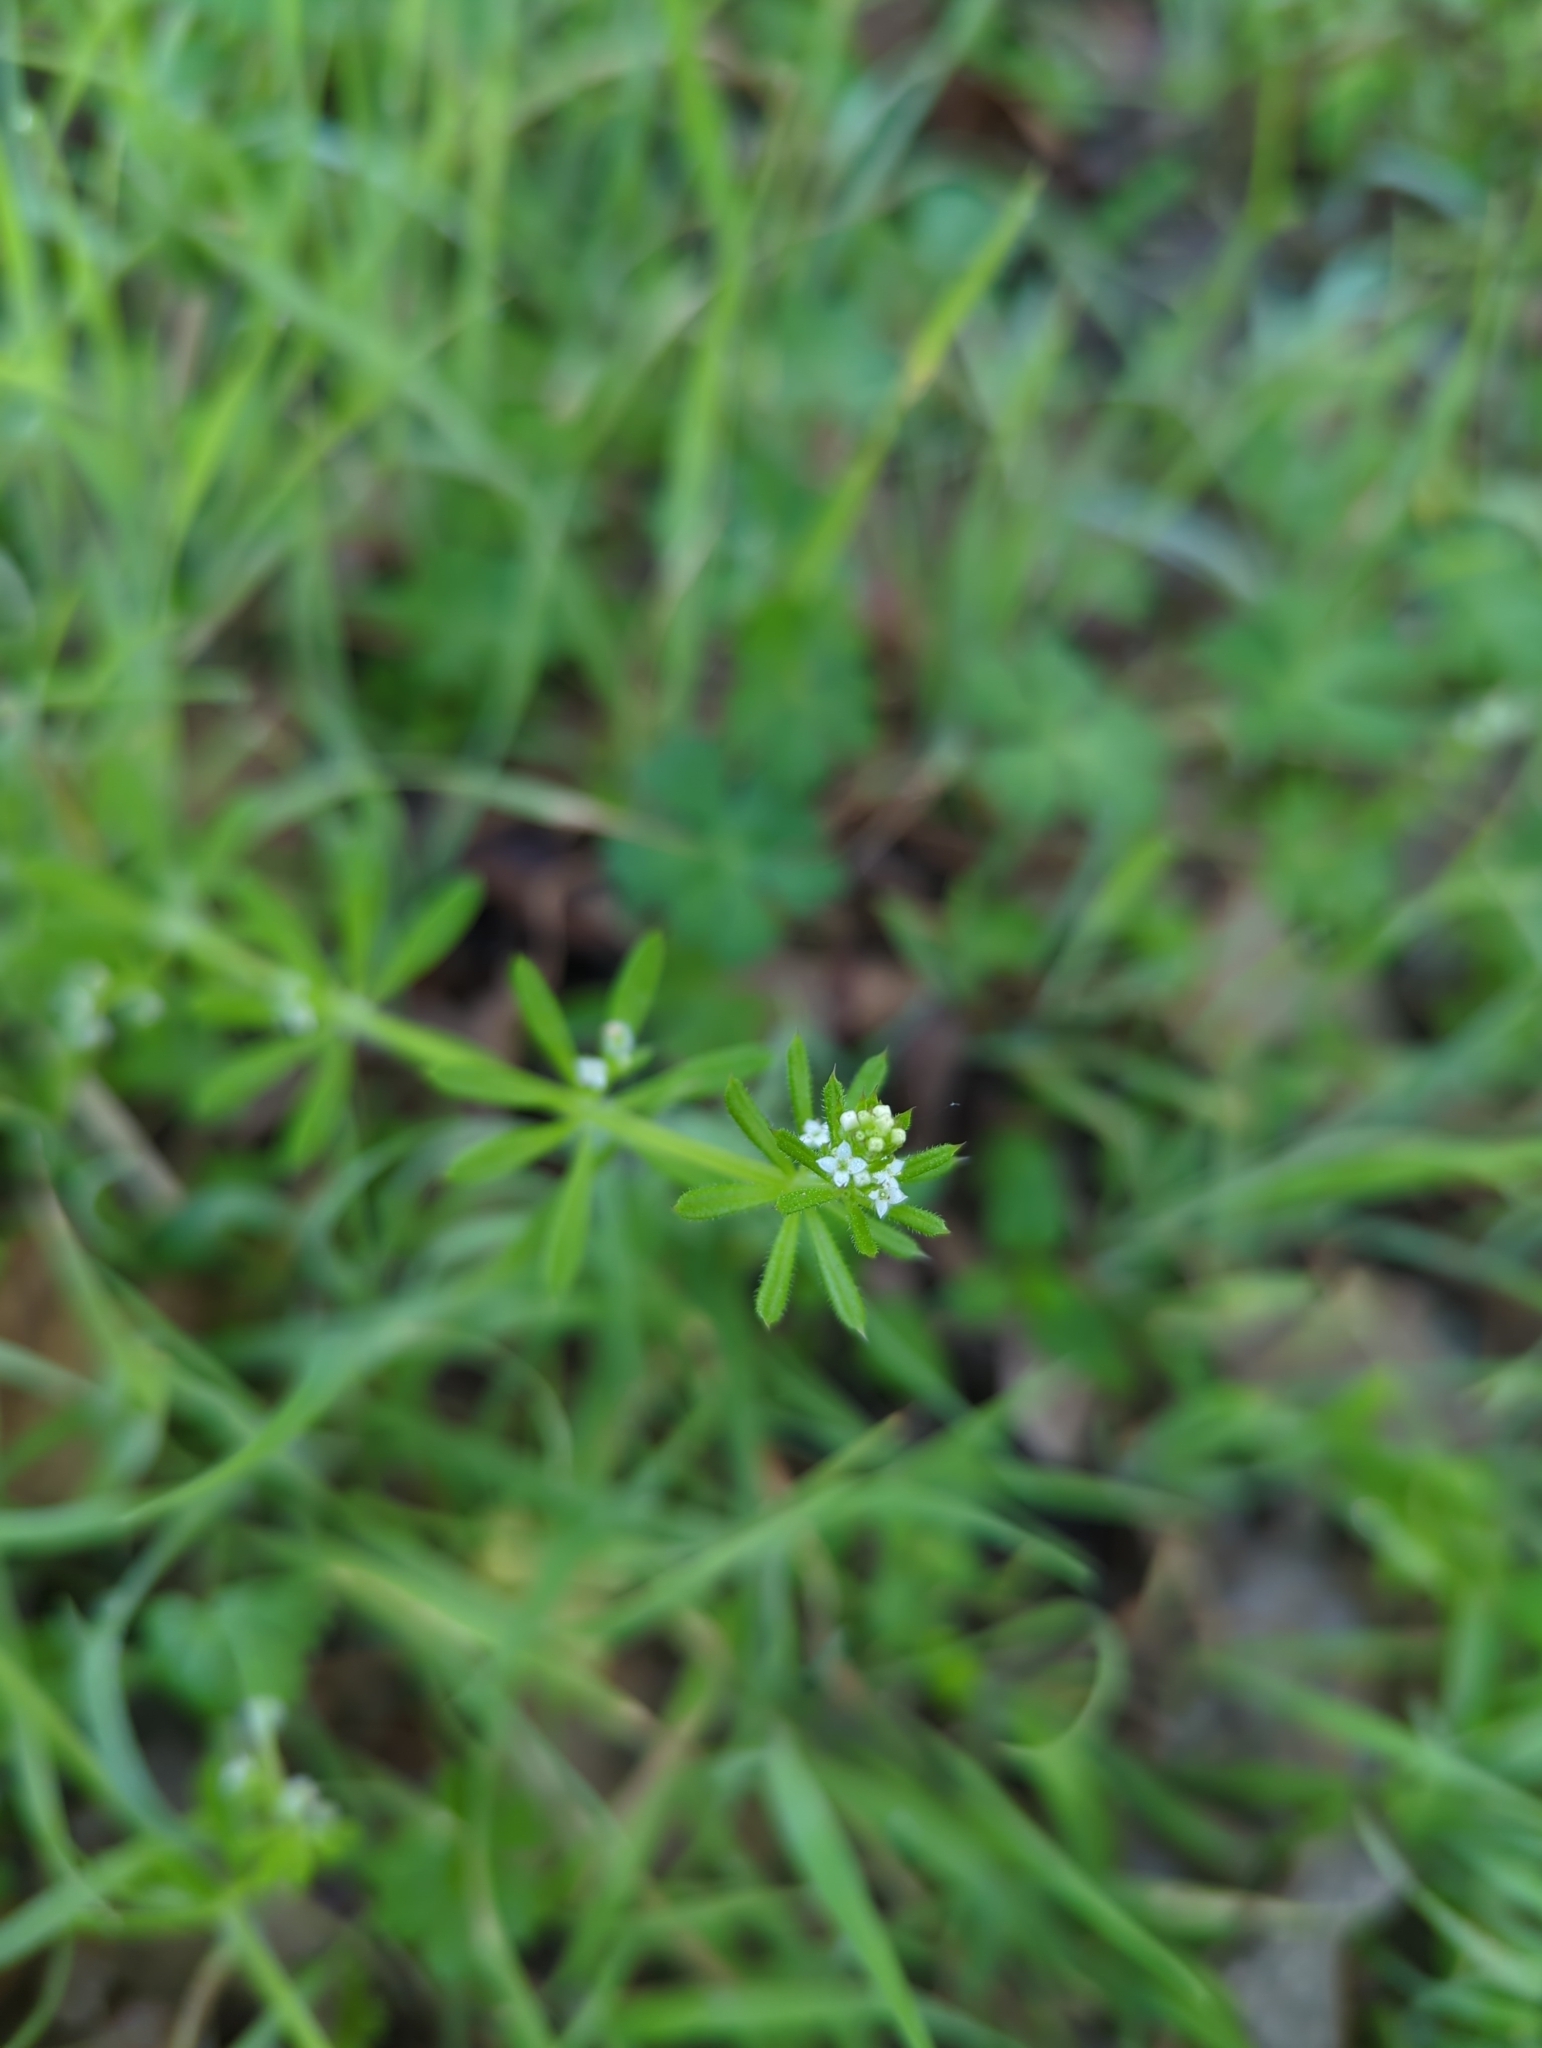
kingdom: Plantae
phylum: Tracheophyta
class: Magnoliopsida
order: Gentianales
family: Rubiaceae
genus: Galium
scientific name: Galium aparine
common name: Cleavers
